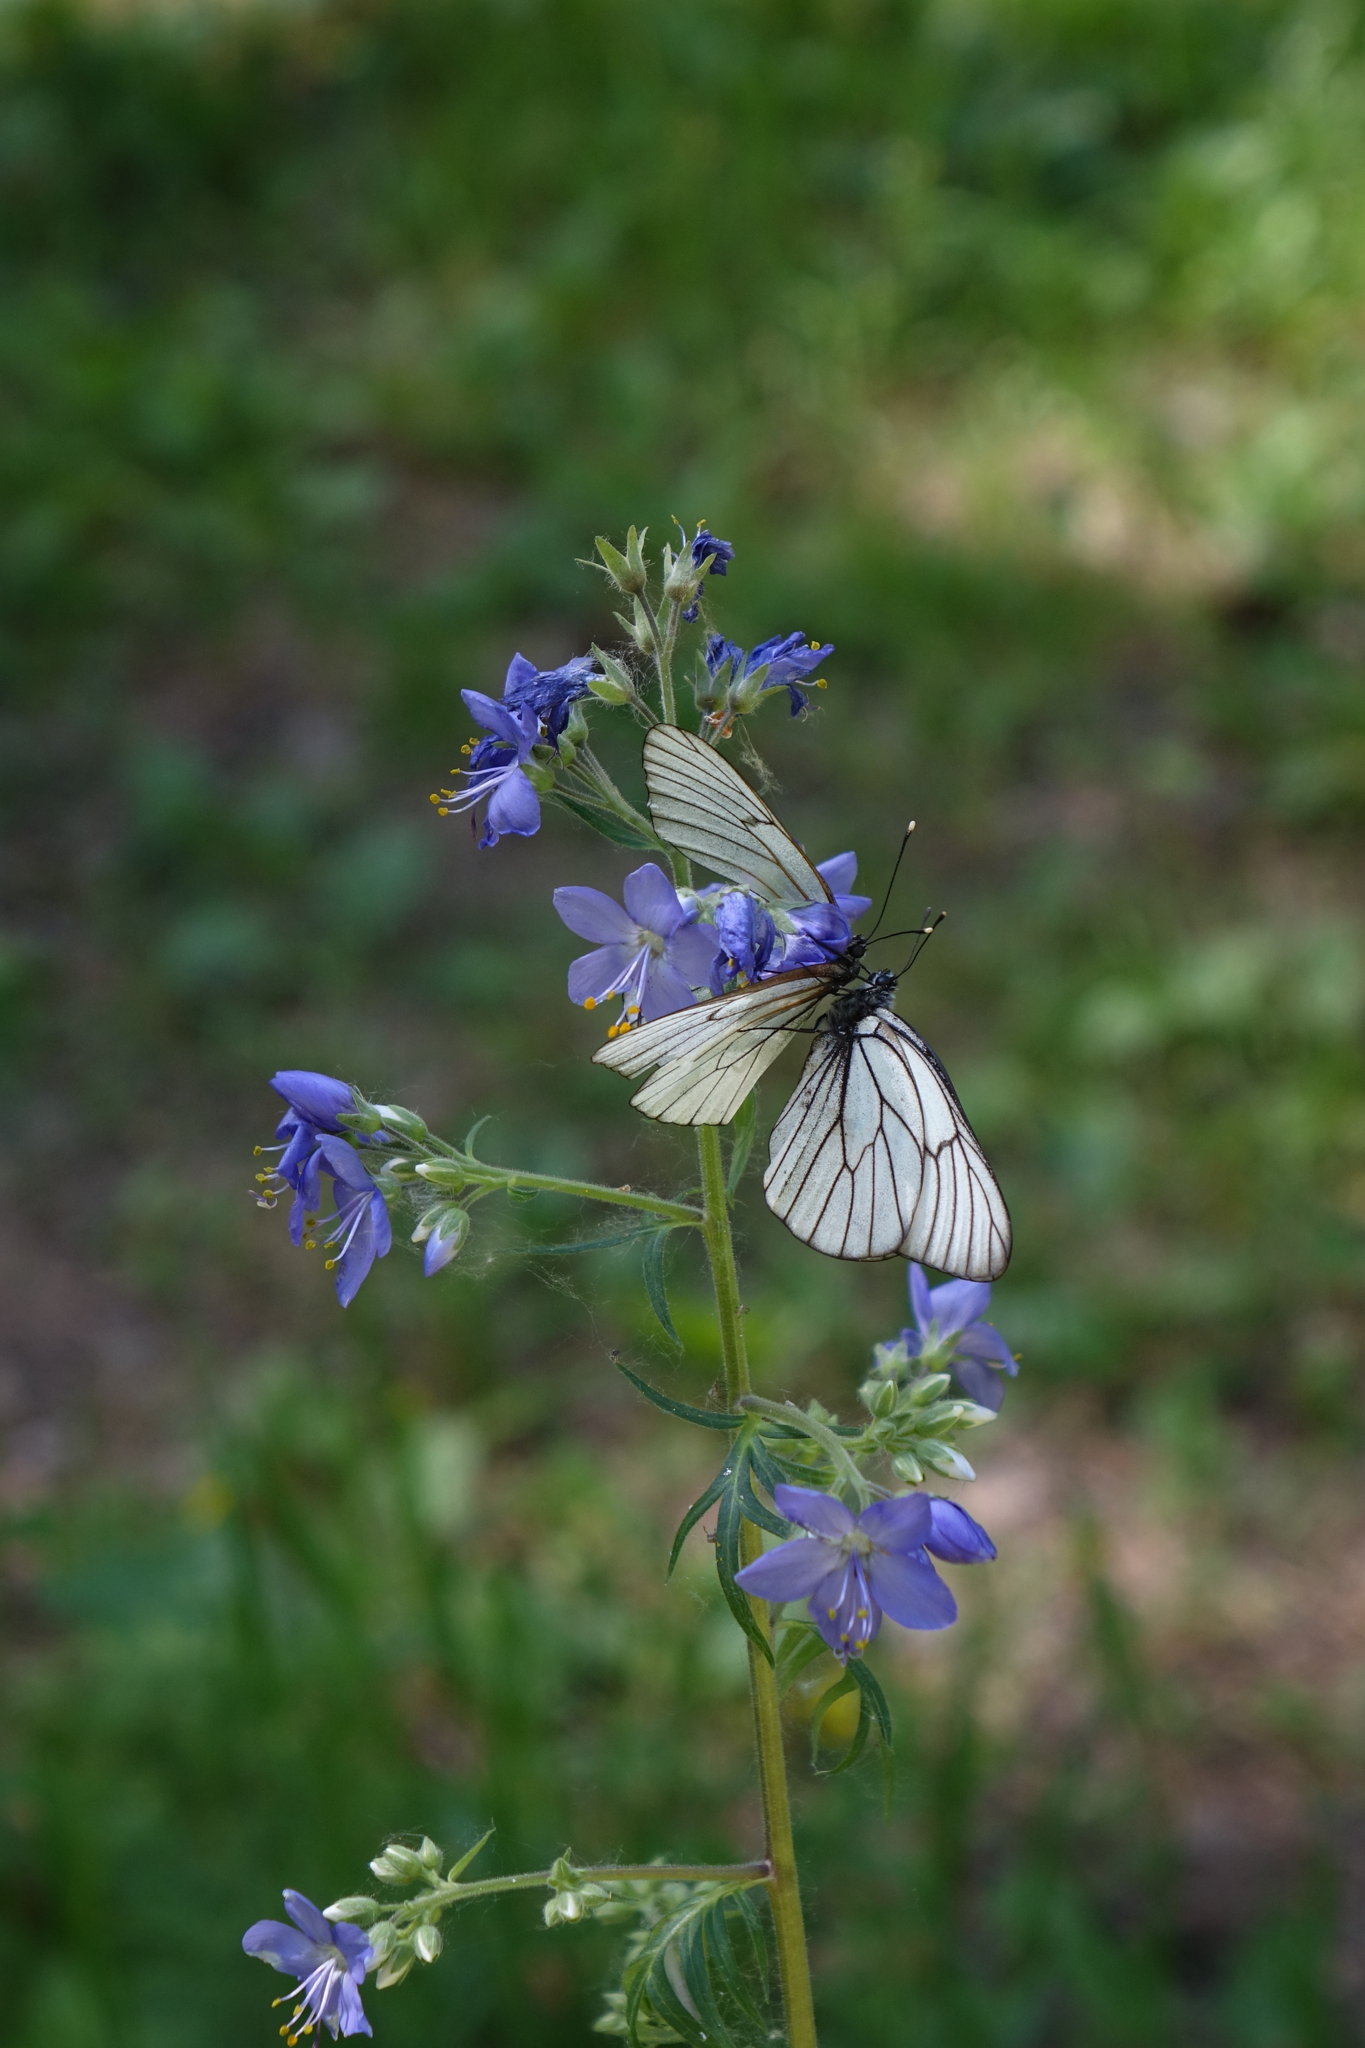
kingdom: Animalia
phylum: Arthropoda
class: Insecta
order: Lepidoptera
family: Pieridae
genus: Aporia
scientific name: Aporia crataegi
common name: Black-veined white
